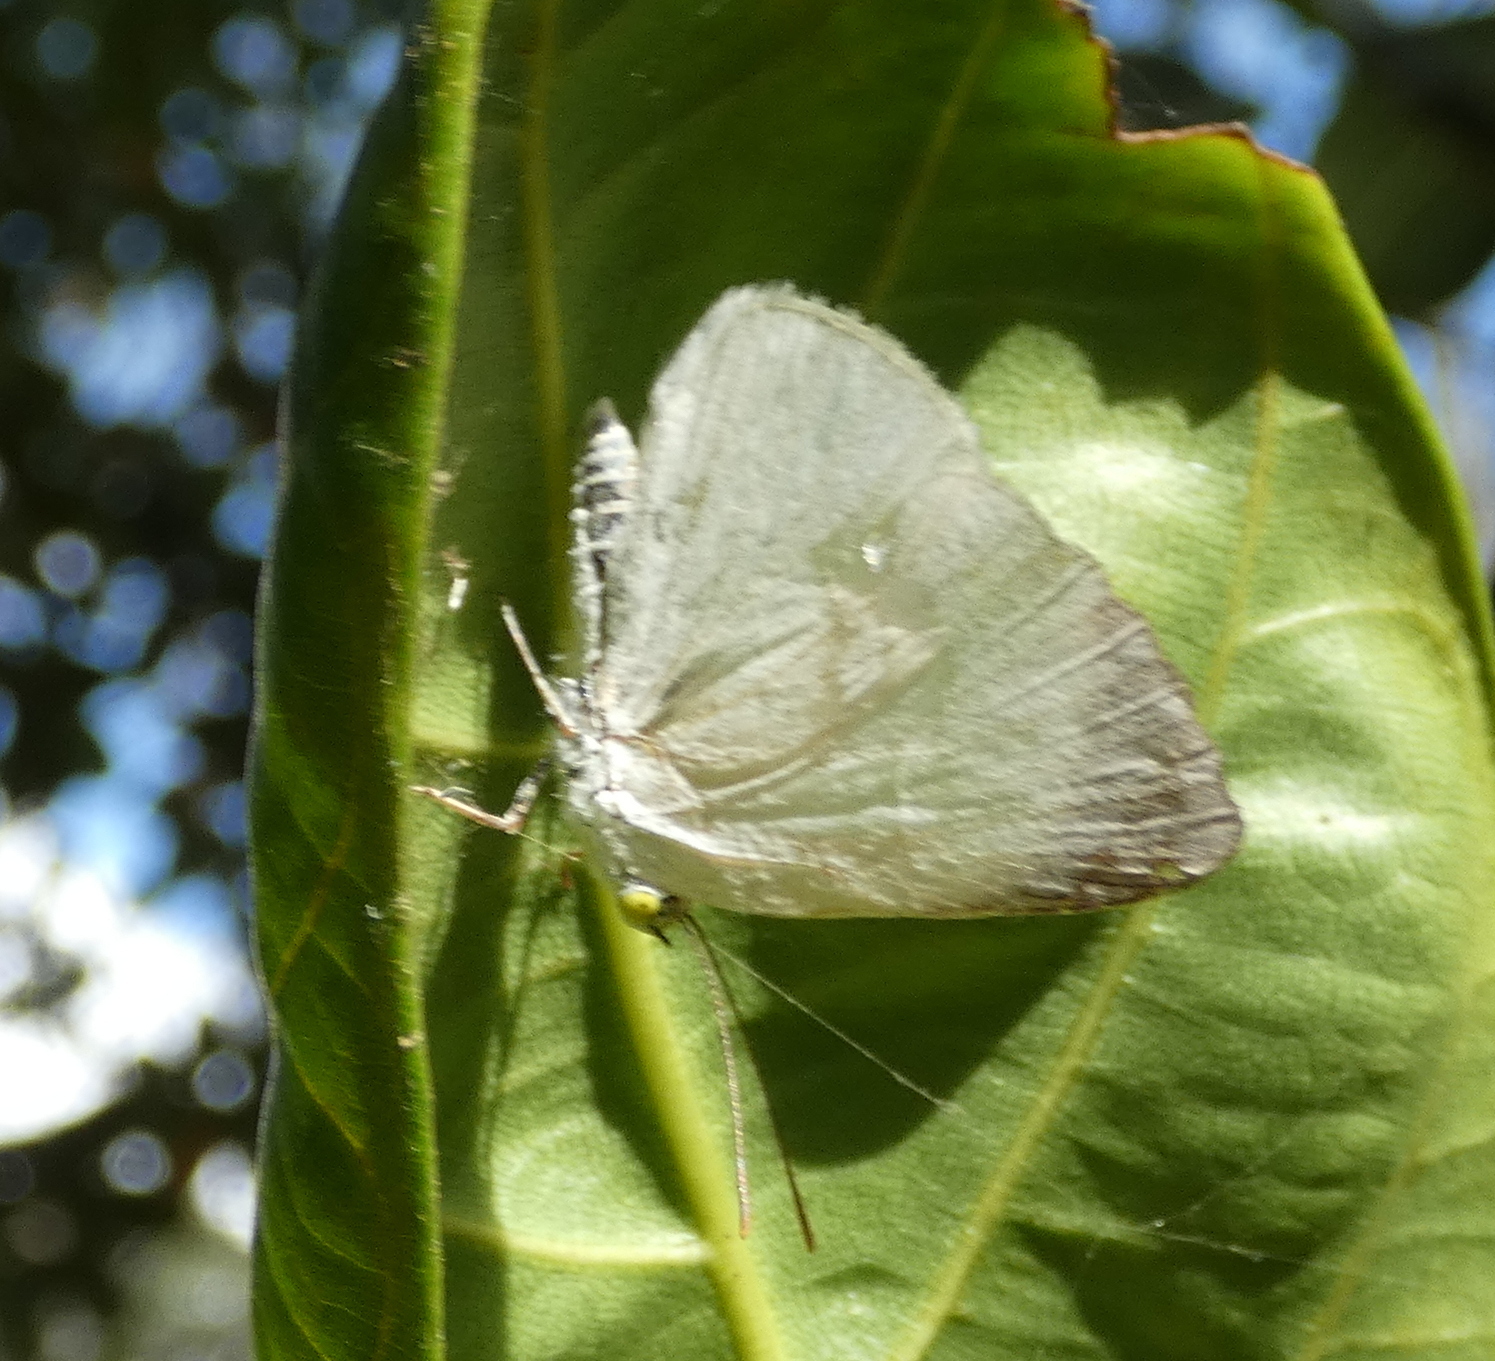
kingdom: Animalia
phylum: Arthropoda
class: Insecta
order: Lepidoptera
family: Nymphalidae
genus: Ethope
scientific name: Ethope
